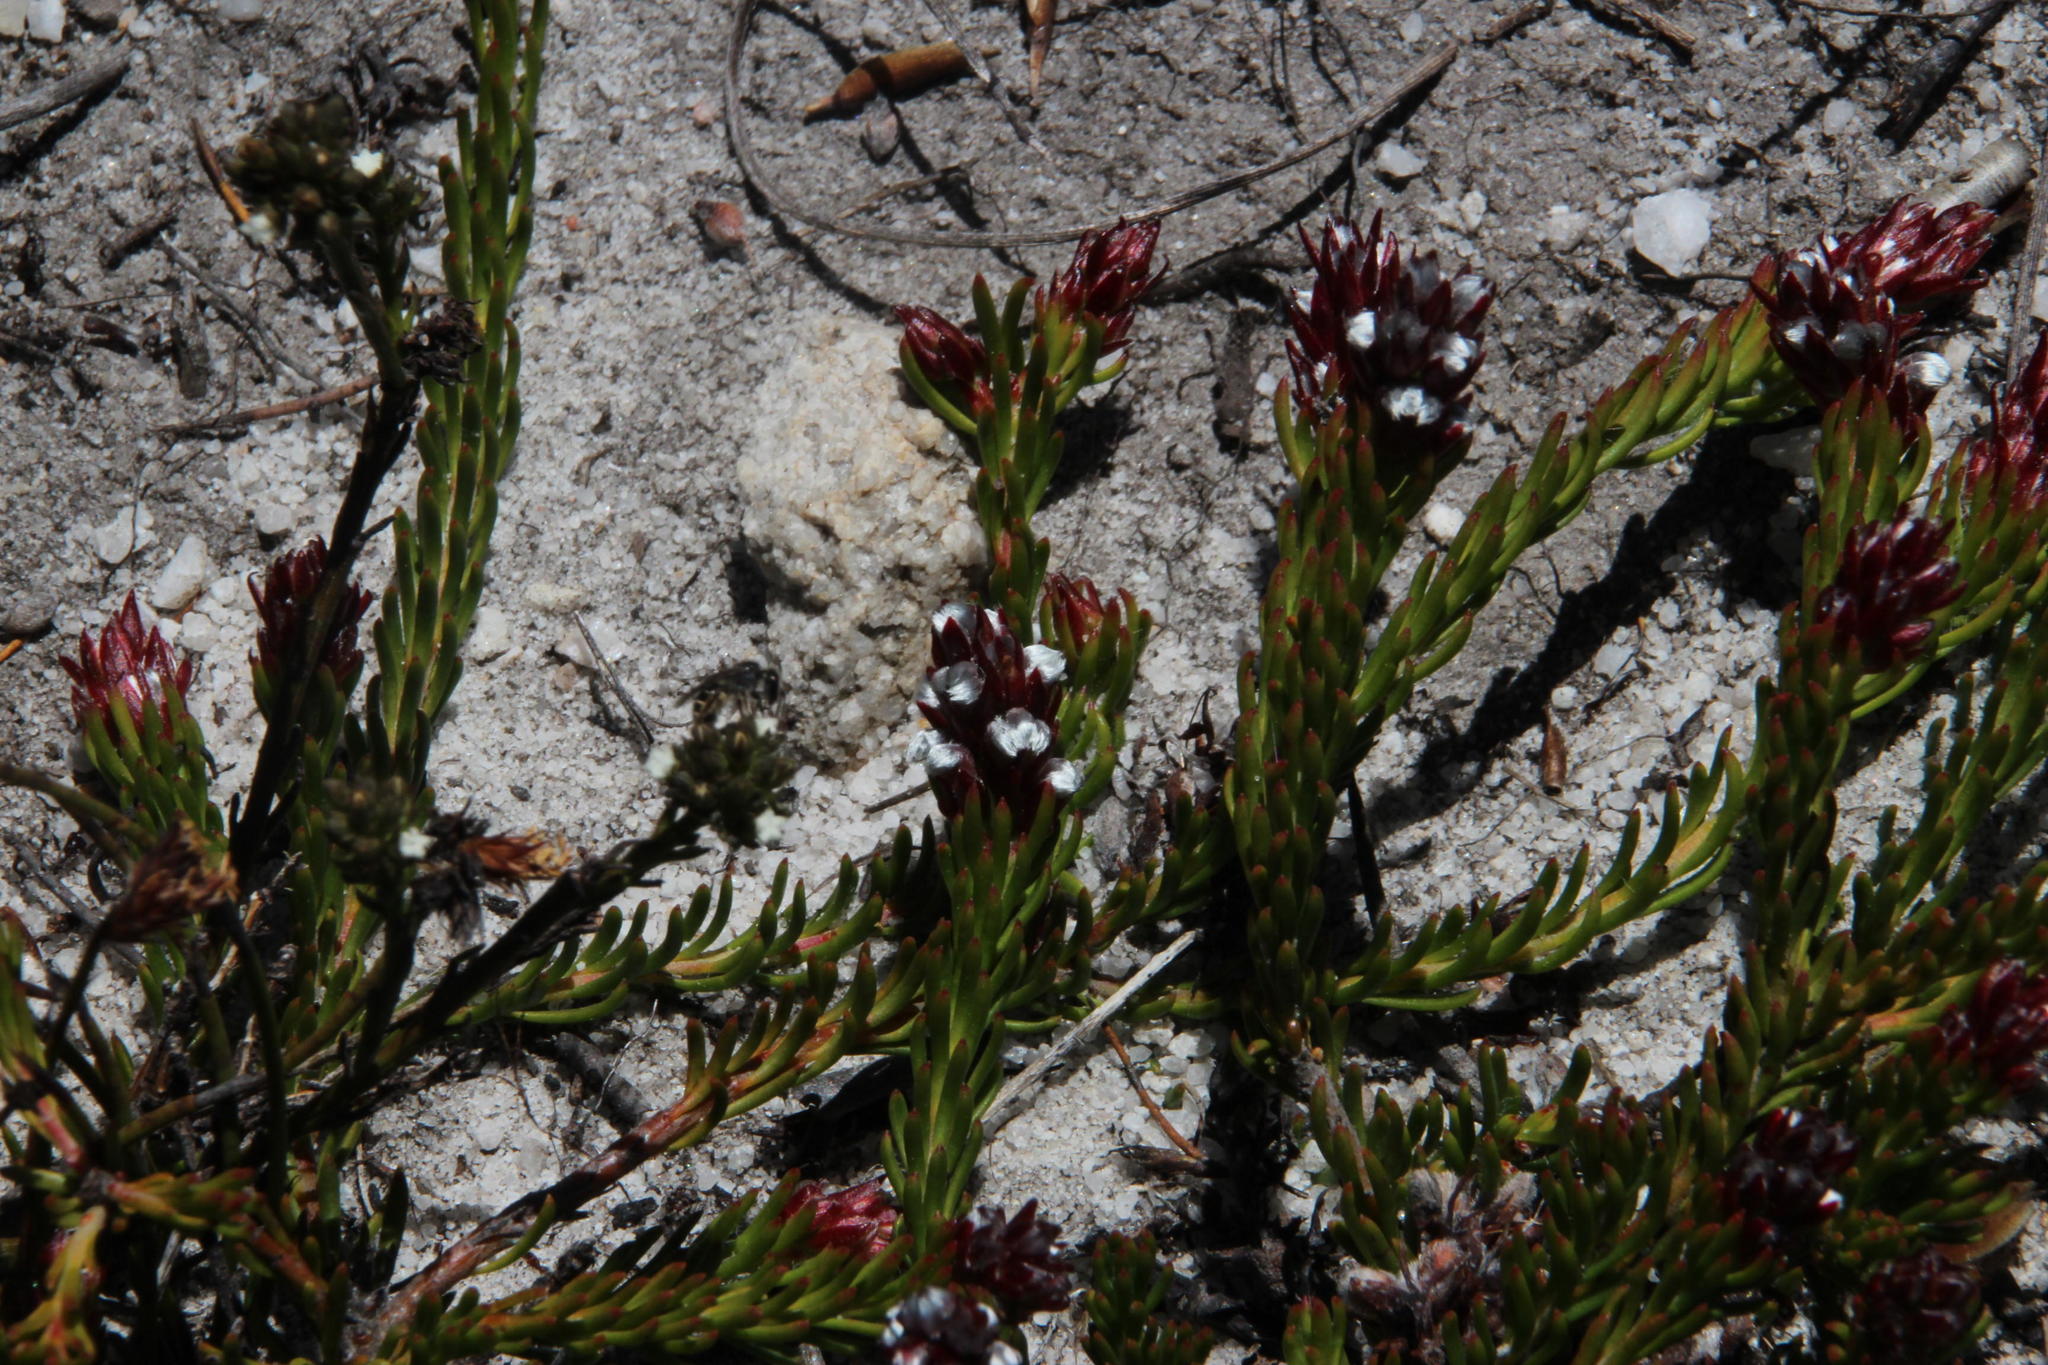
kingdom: Plantae
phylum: Tracheophyta
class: Magnoliopsida
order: Proteales
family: Proteaceae
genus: Spatalla
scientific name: Spatalla confusa
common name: Long-tube spoon
